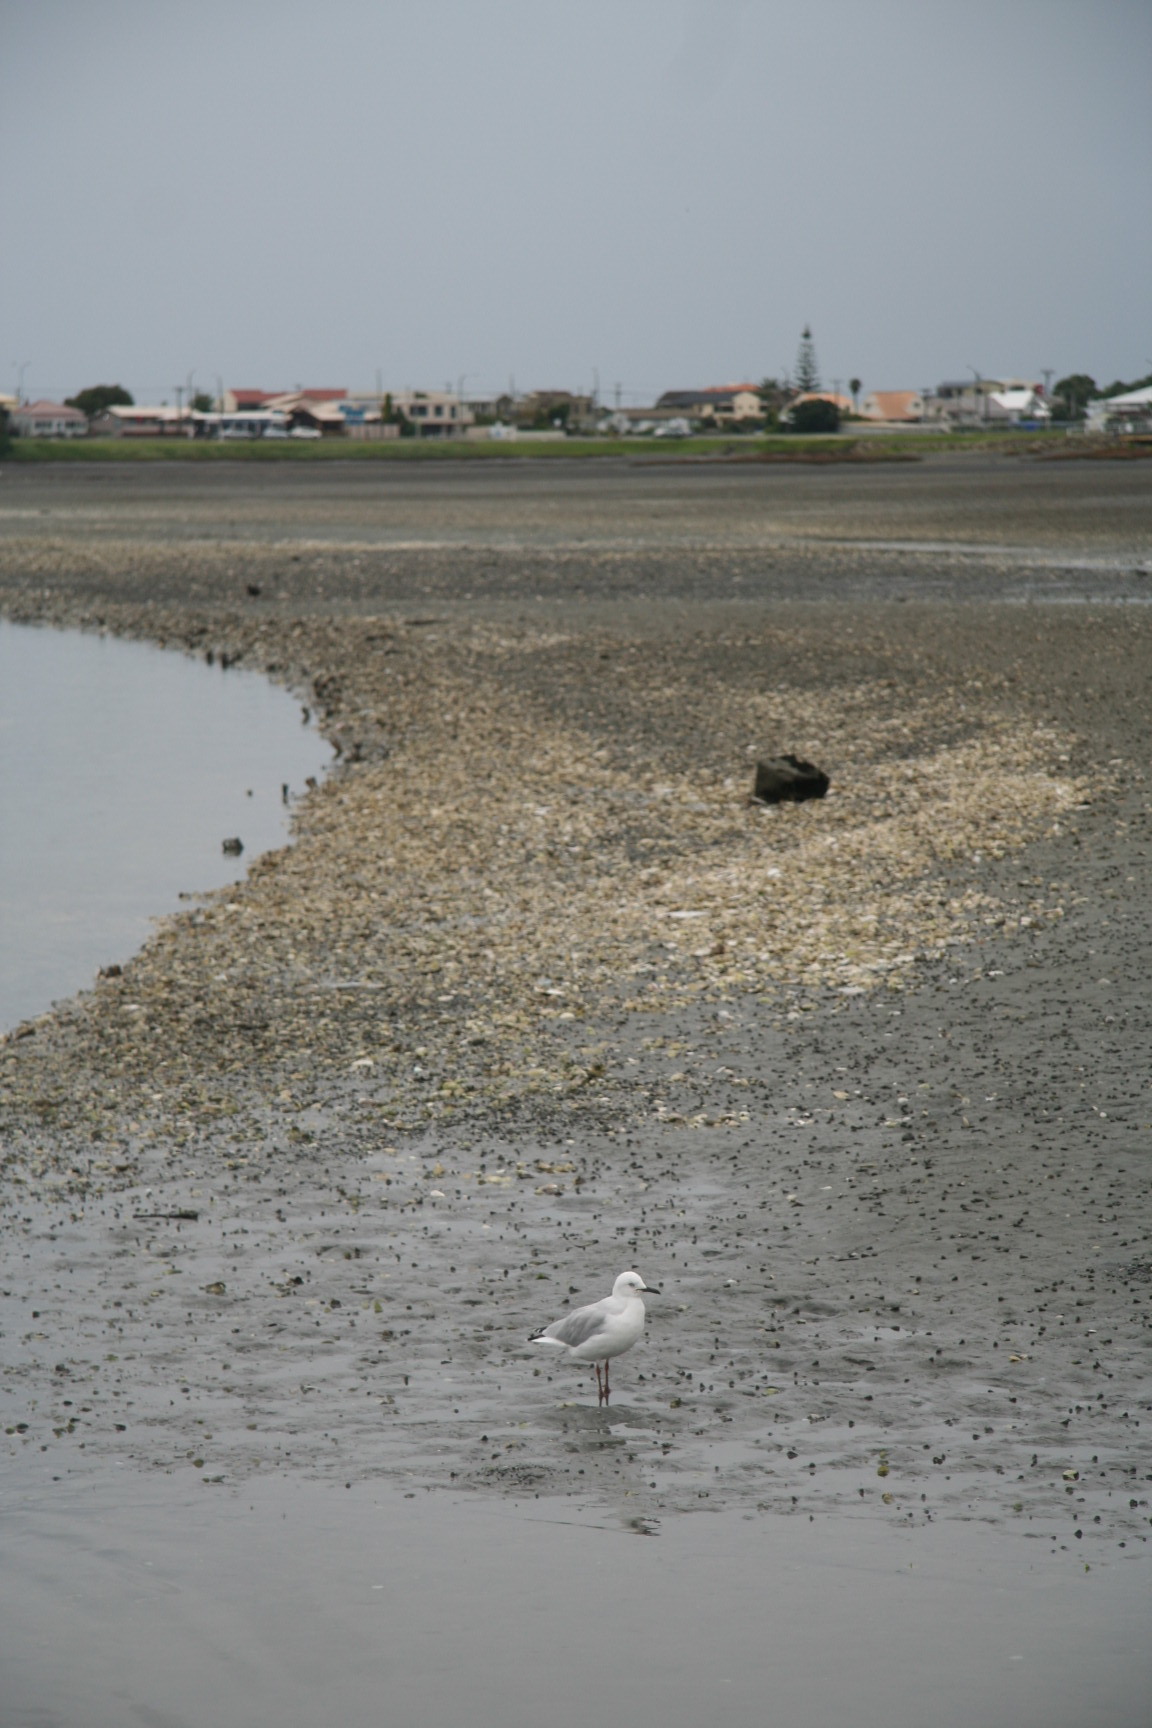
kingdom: Animalia
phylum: Chordata
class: Aves
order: Charadriiformes
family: Laridae
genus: Chroicocephalus
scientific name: Chroicocephalus bulleri
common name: Black-billed gull
